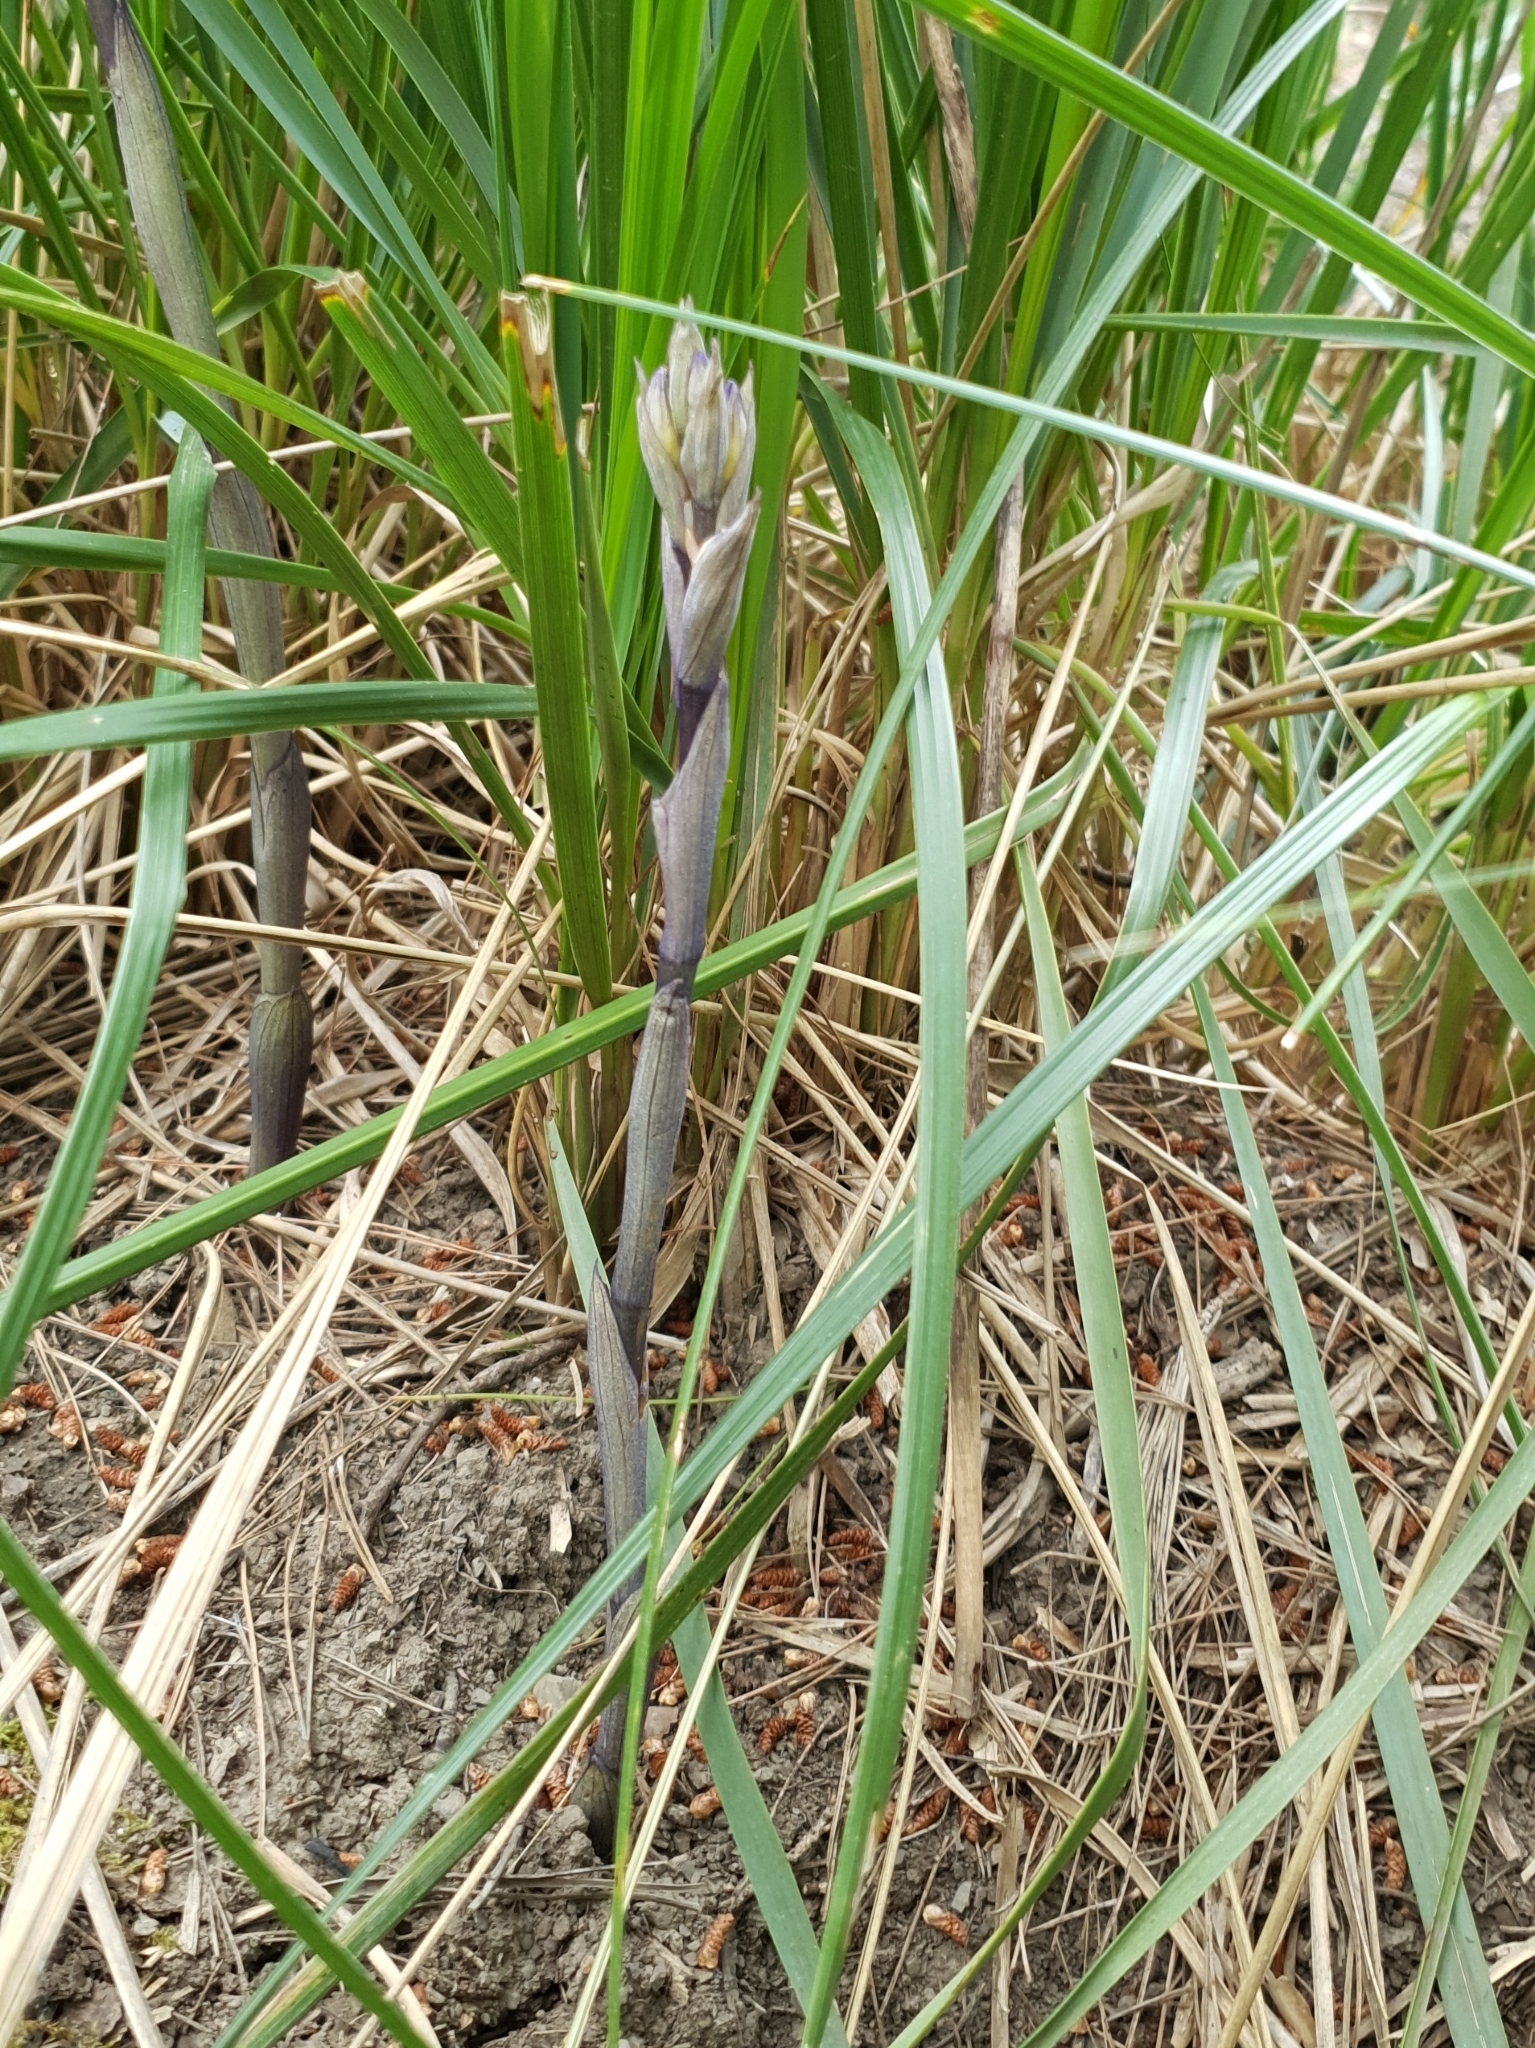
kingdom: Plantae
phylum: Tracheophyta
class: Liliopsida
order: Asparagales
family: Orchidaceae
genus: Limodorum
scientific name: Limodorum abortivum
